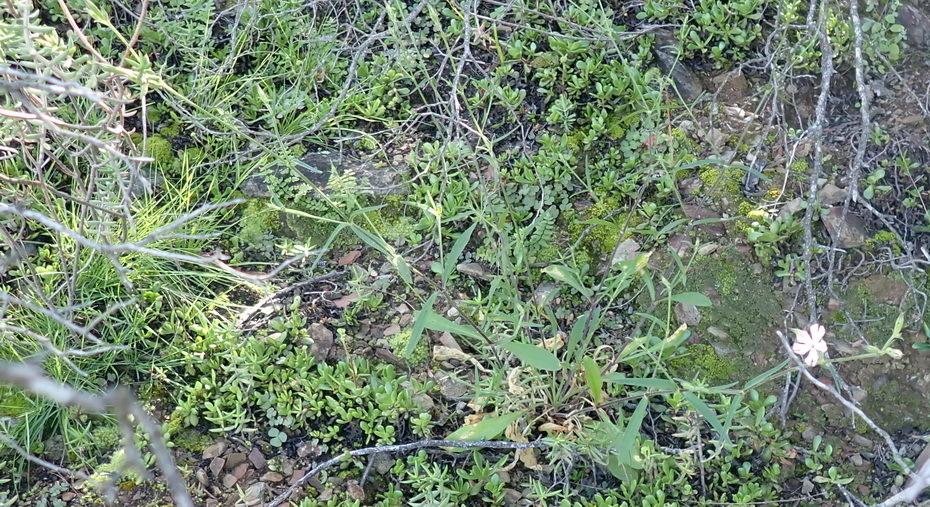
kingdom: Plantae
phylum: Tracheophyta
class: Magnoliopsida
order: Caryophyllales
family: Caryophyllaceae
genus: Silene
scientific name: Silene undulata
